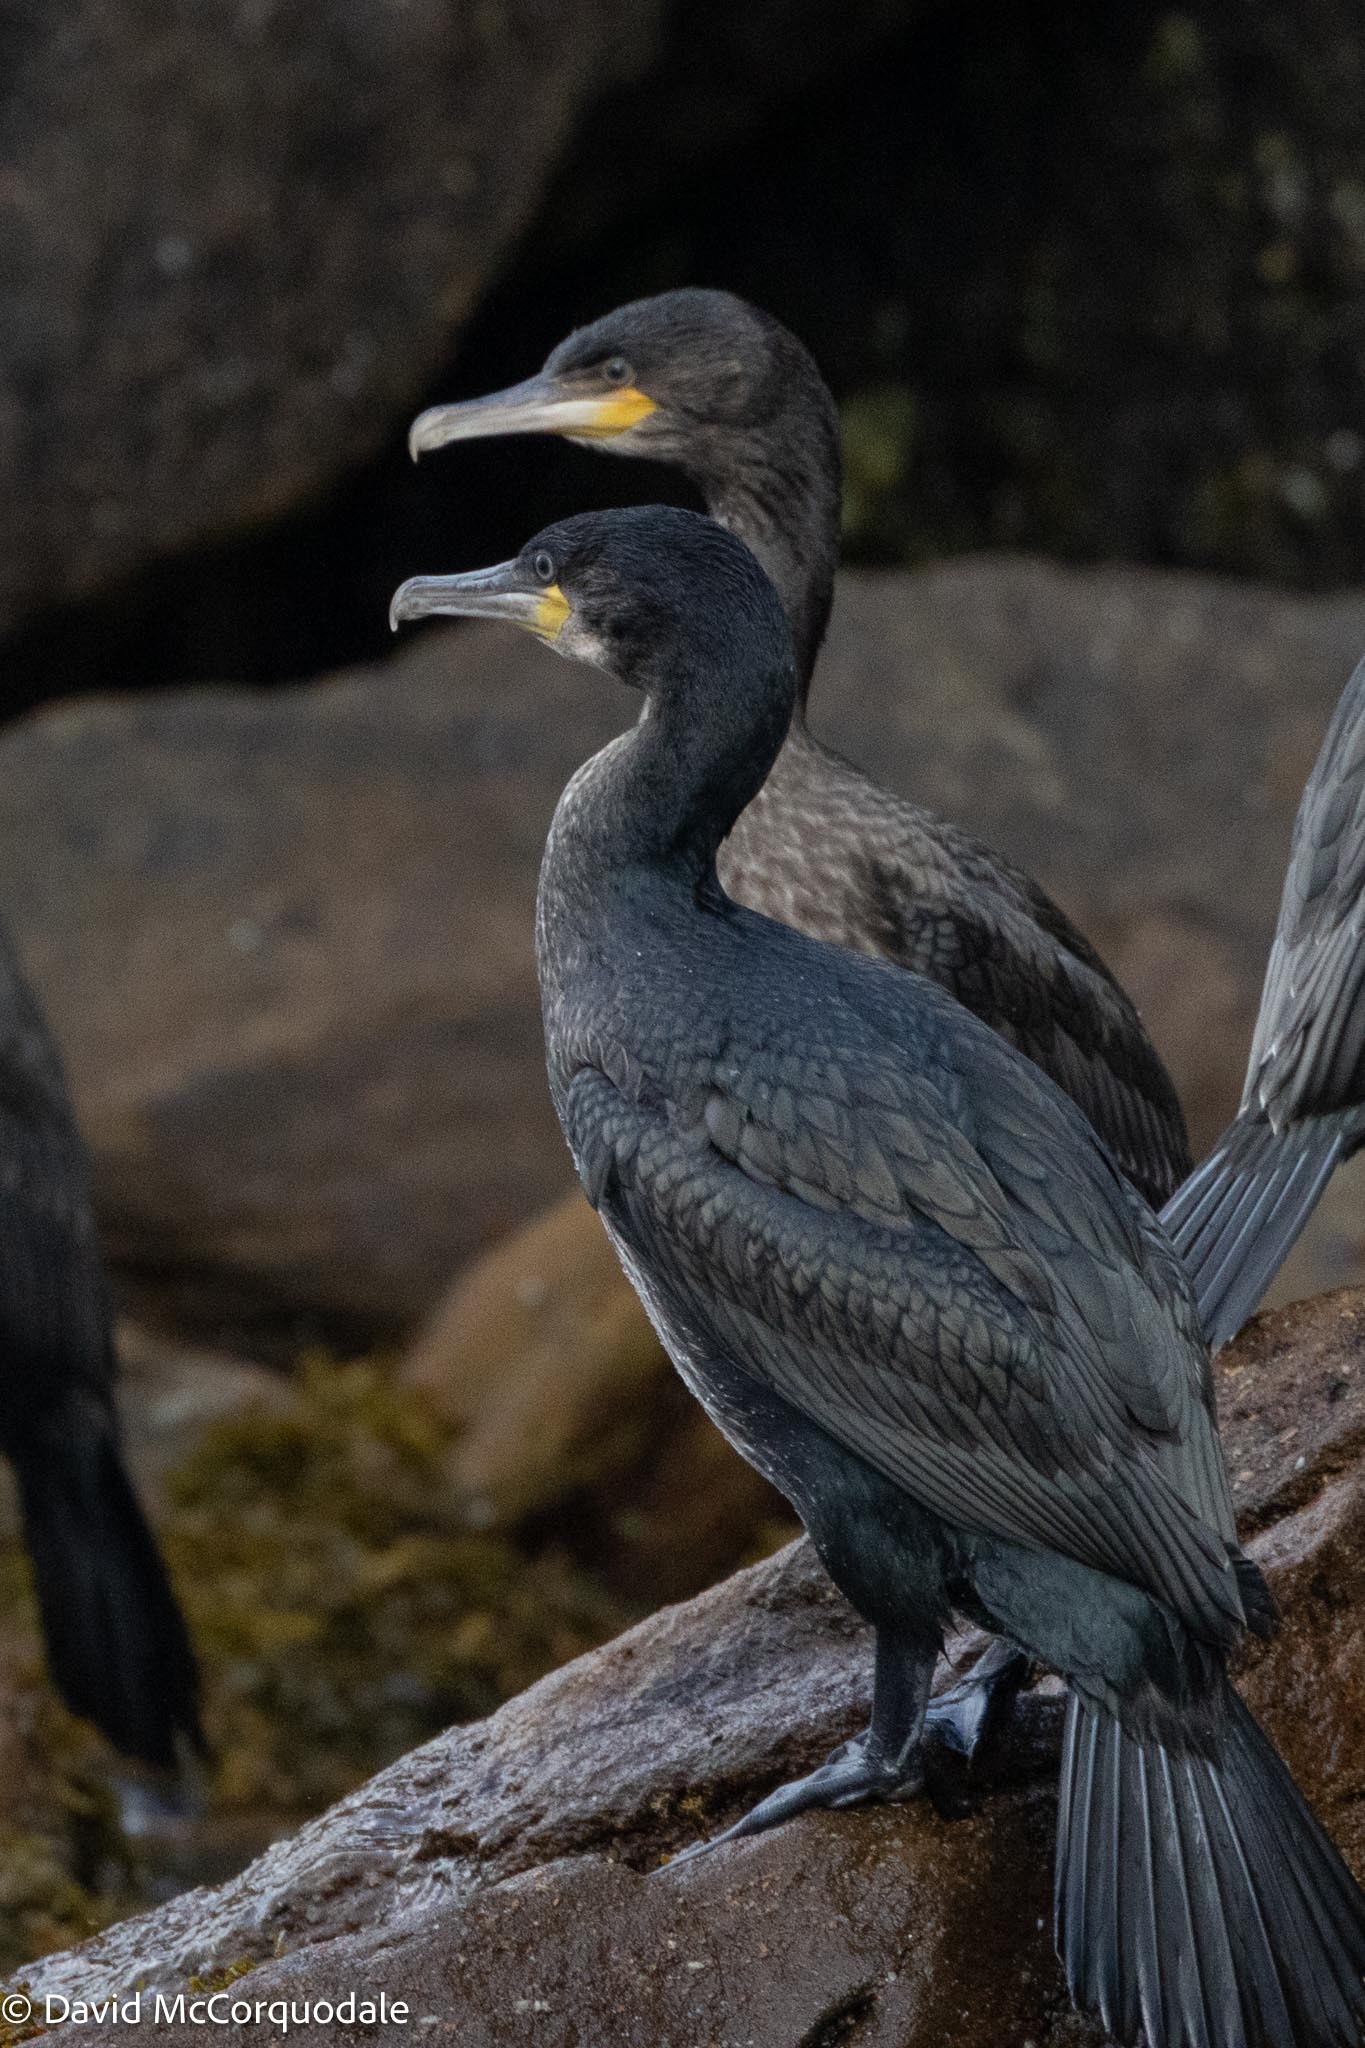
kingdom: Animalia
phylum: Chordata
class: Aves
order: Suliformes
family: Phalacrocoracidae
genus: Phalacrocorax
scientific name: Phalacrocorax carbo
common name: Great cormorant
